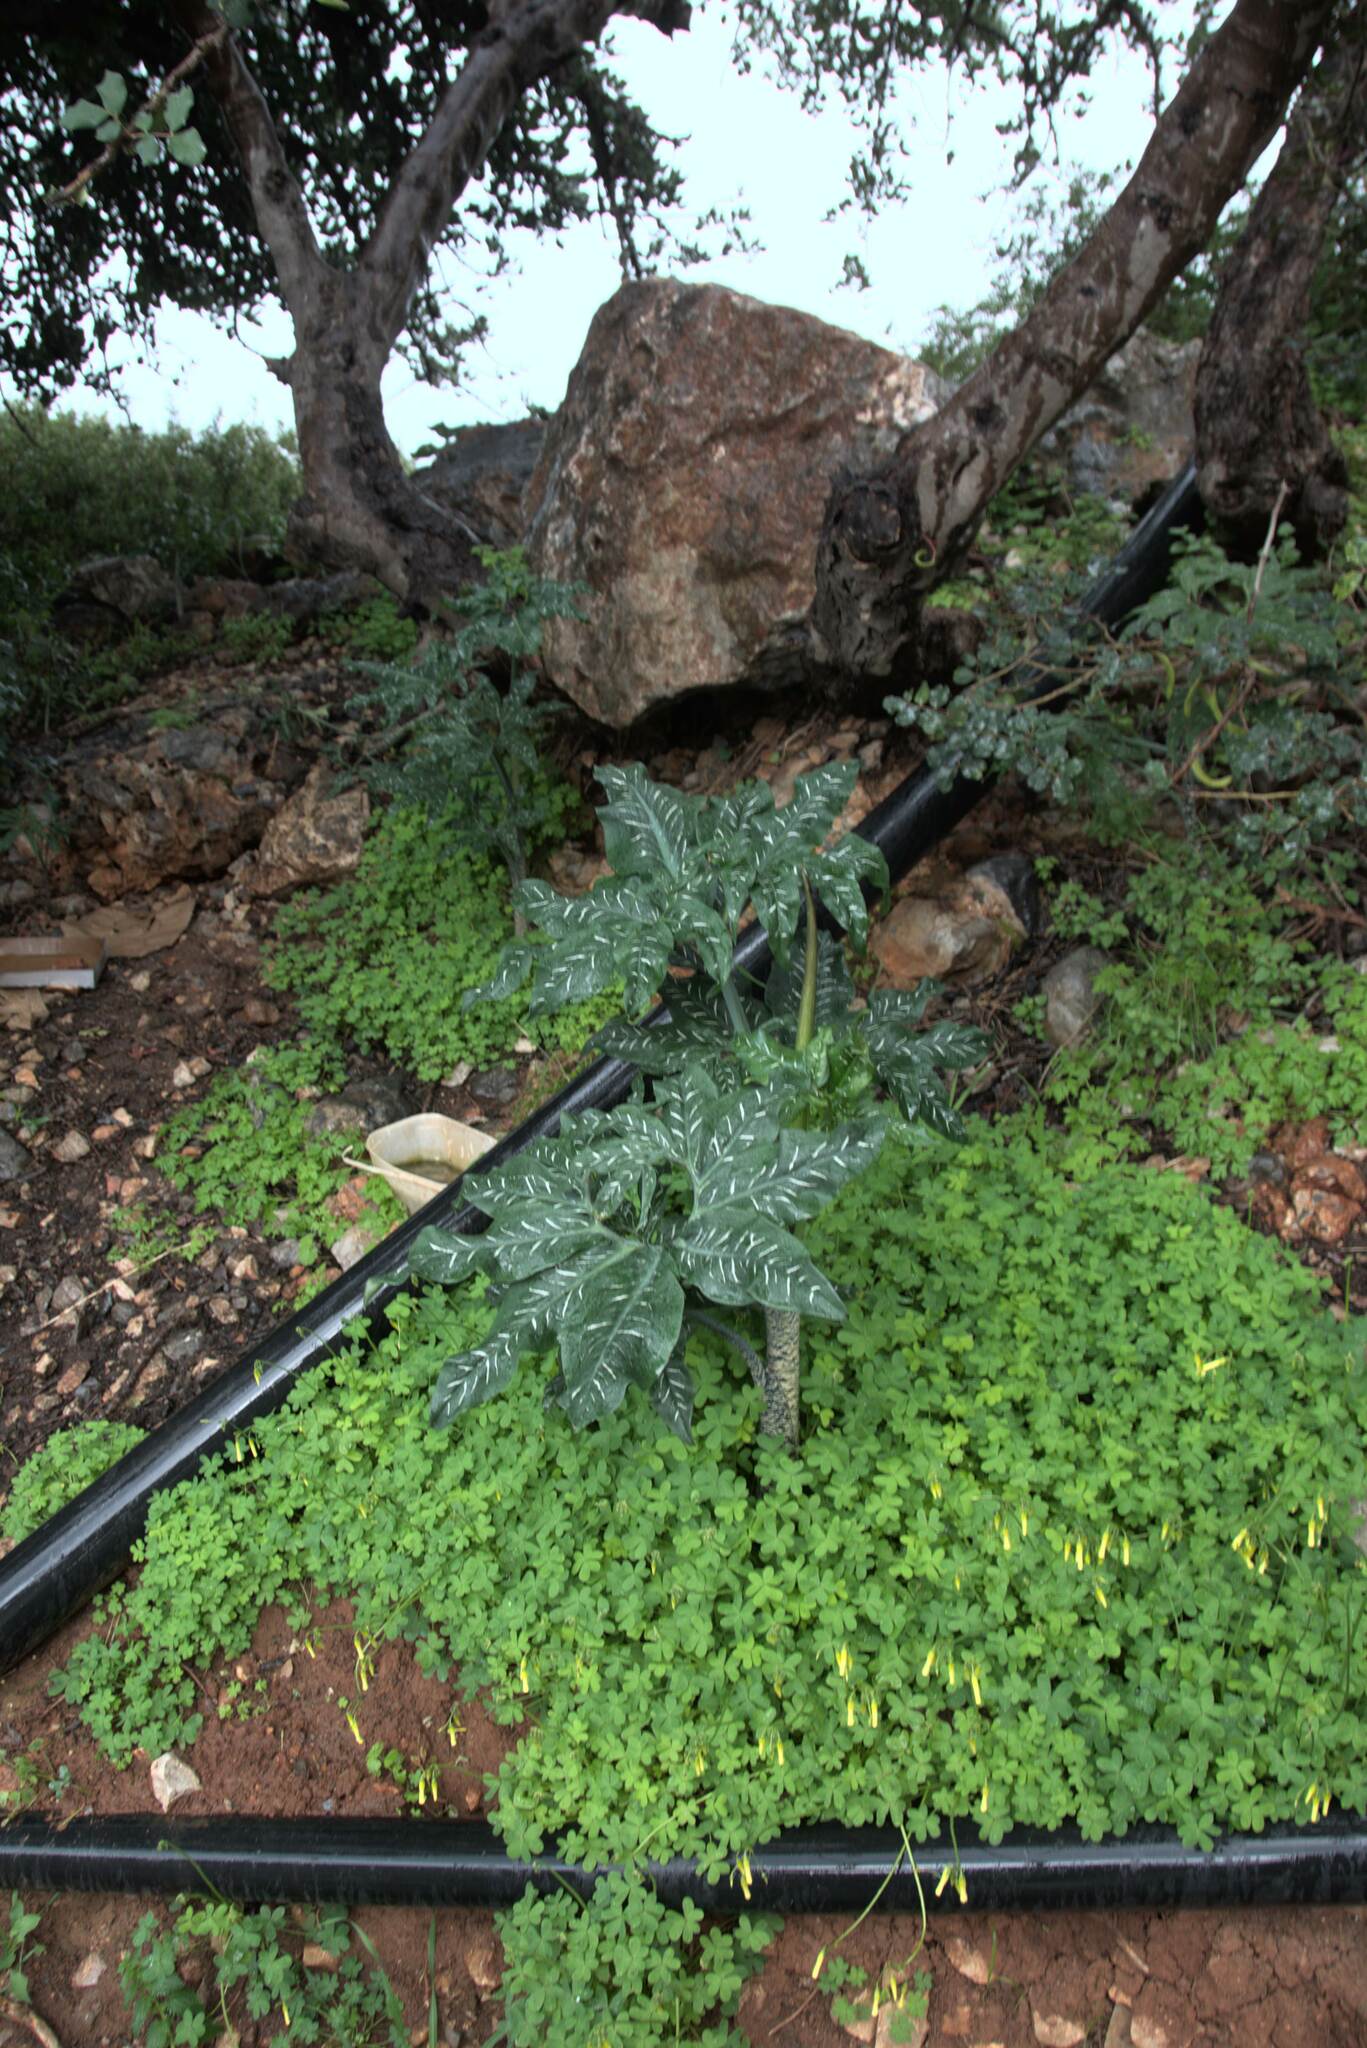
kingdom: Plantae
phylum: Tracheophyta
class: Liliopsida
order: Alismatales
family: Araceae
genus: Dracunculus
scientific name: Dracunculus vulgaris
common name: Dragon arum
